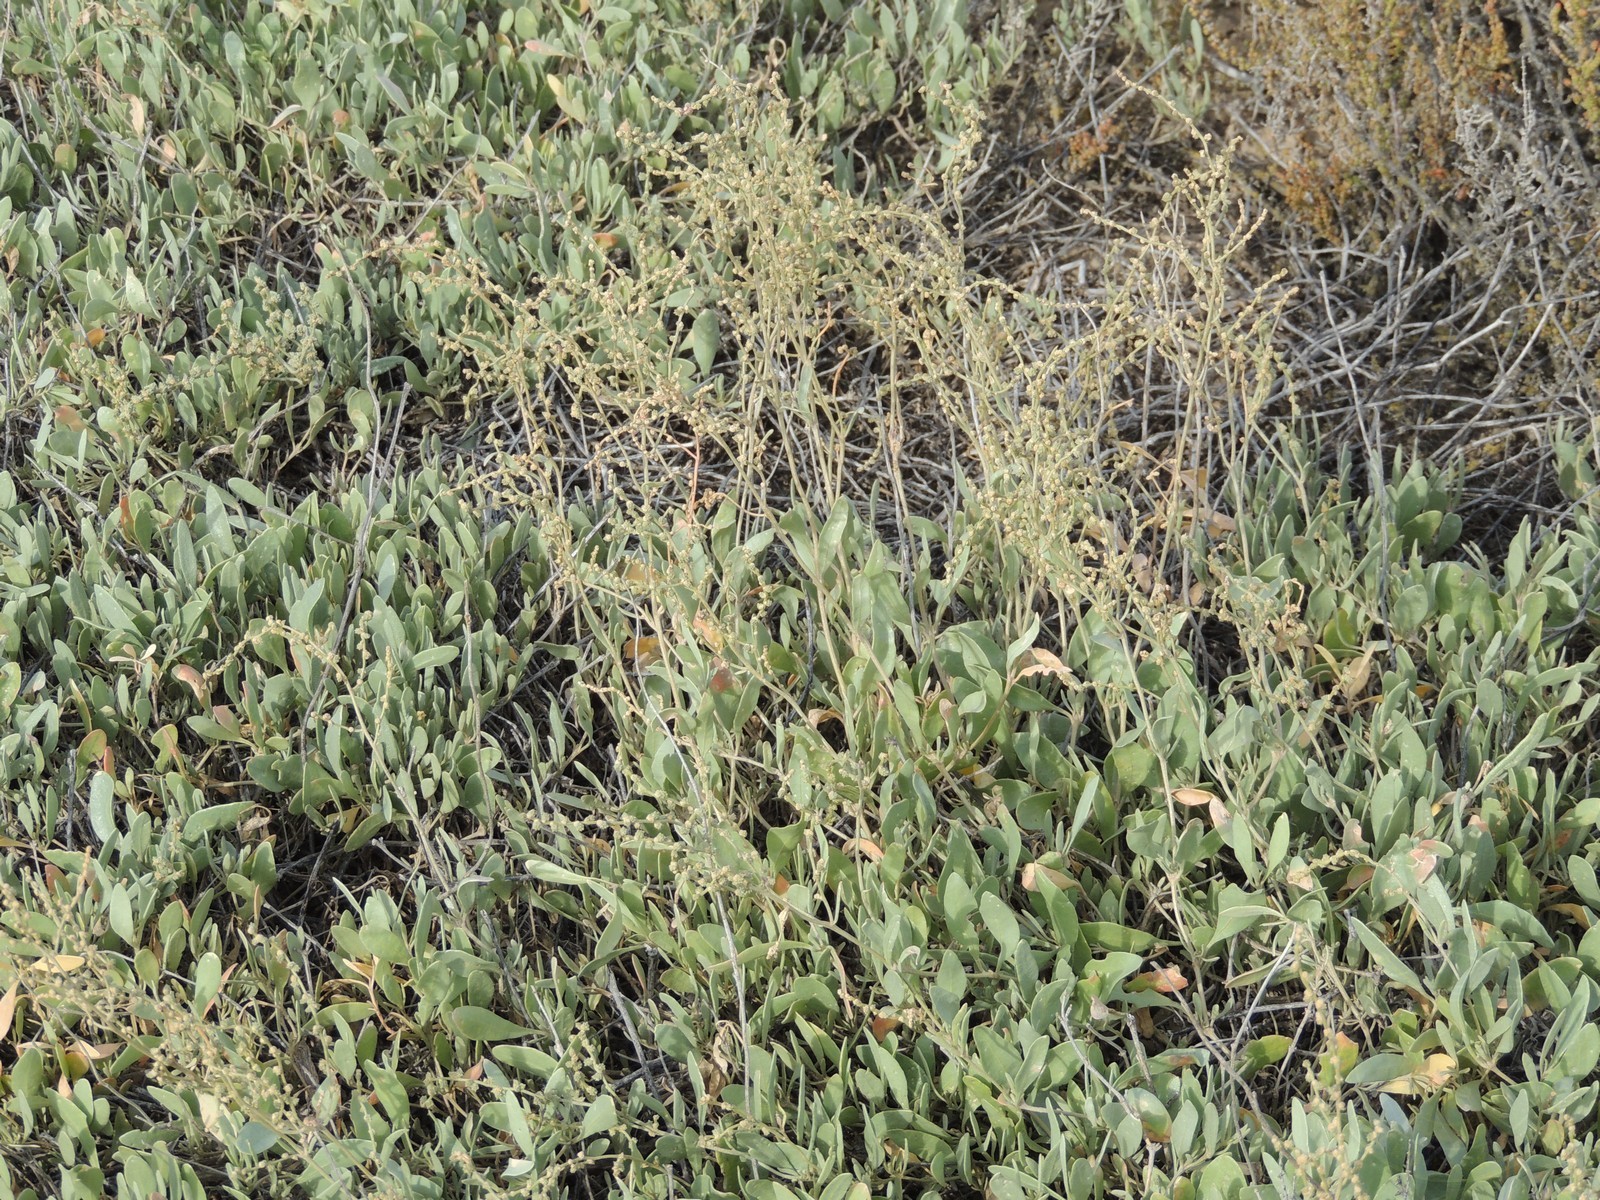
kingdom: Plantae
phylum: Tracheophyta
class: Magnoliopsida
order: Caryophyllales
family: Amaranthaceae
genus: Halimione
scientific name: Halimione verrucifera
